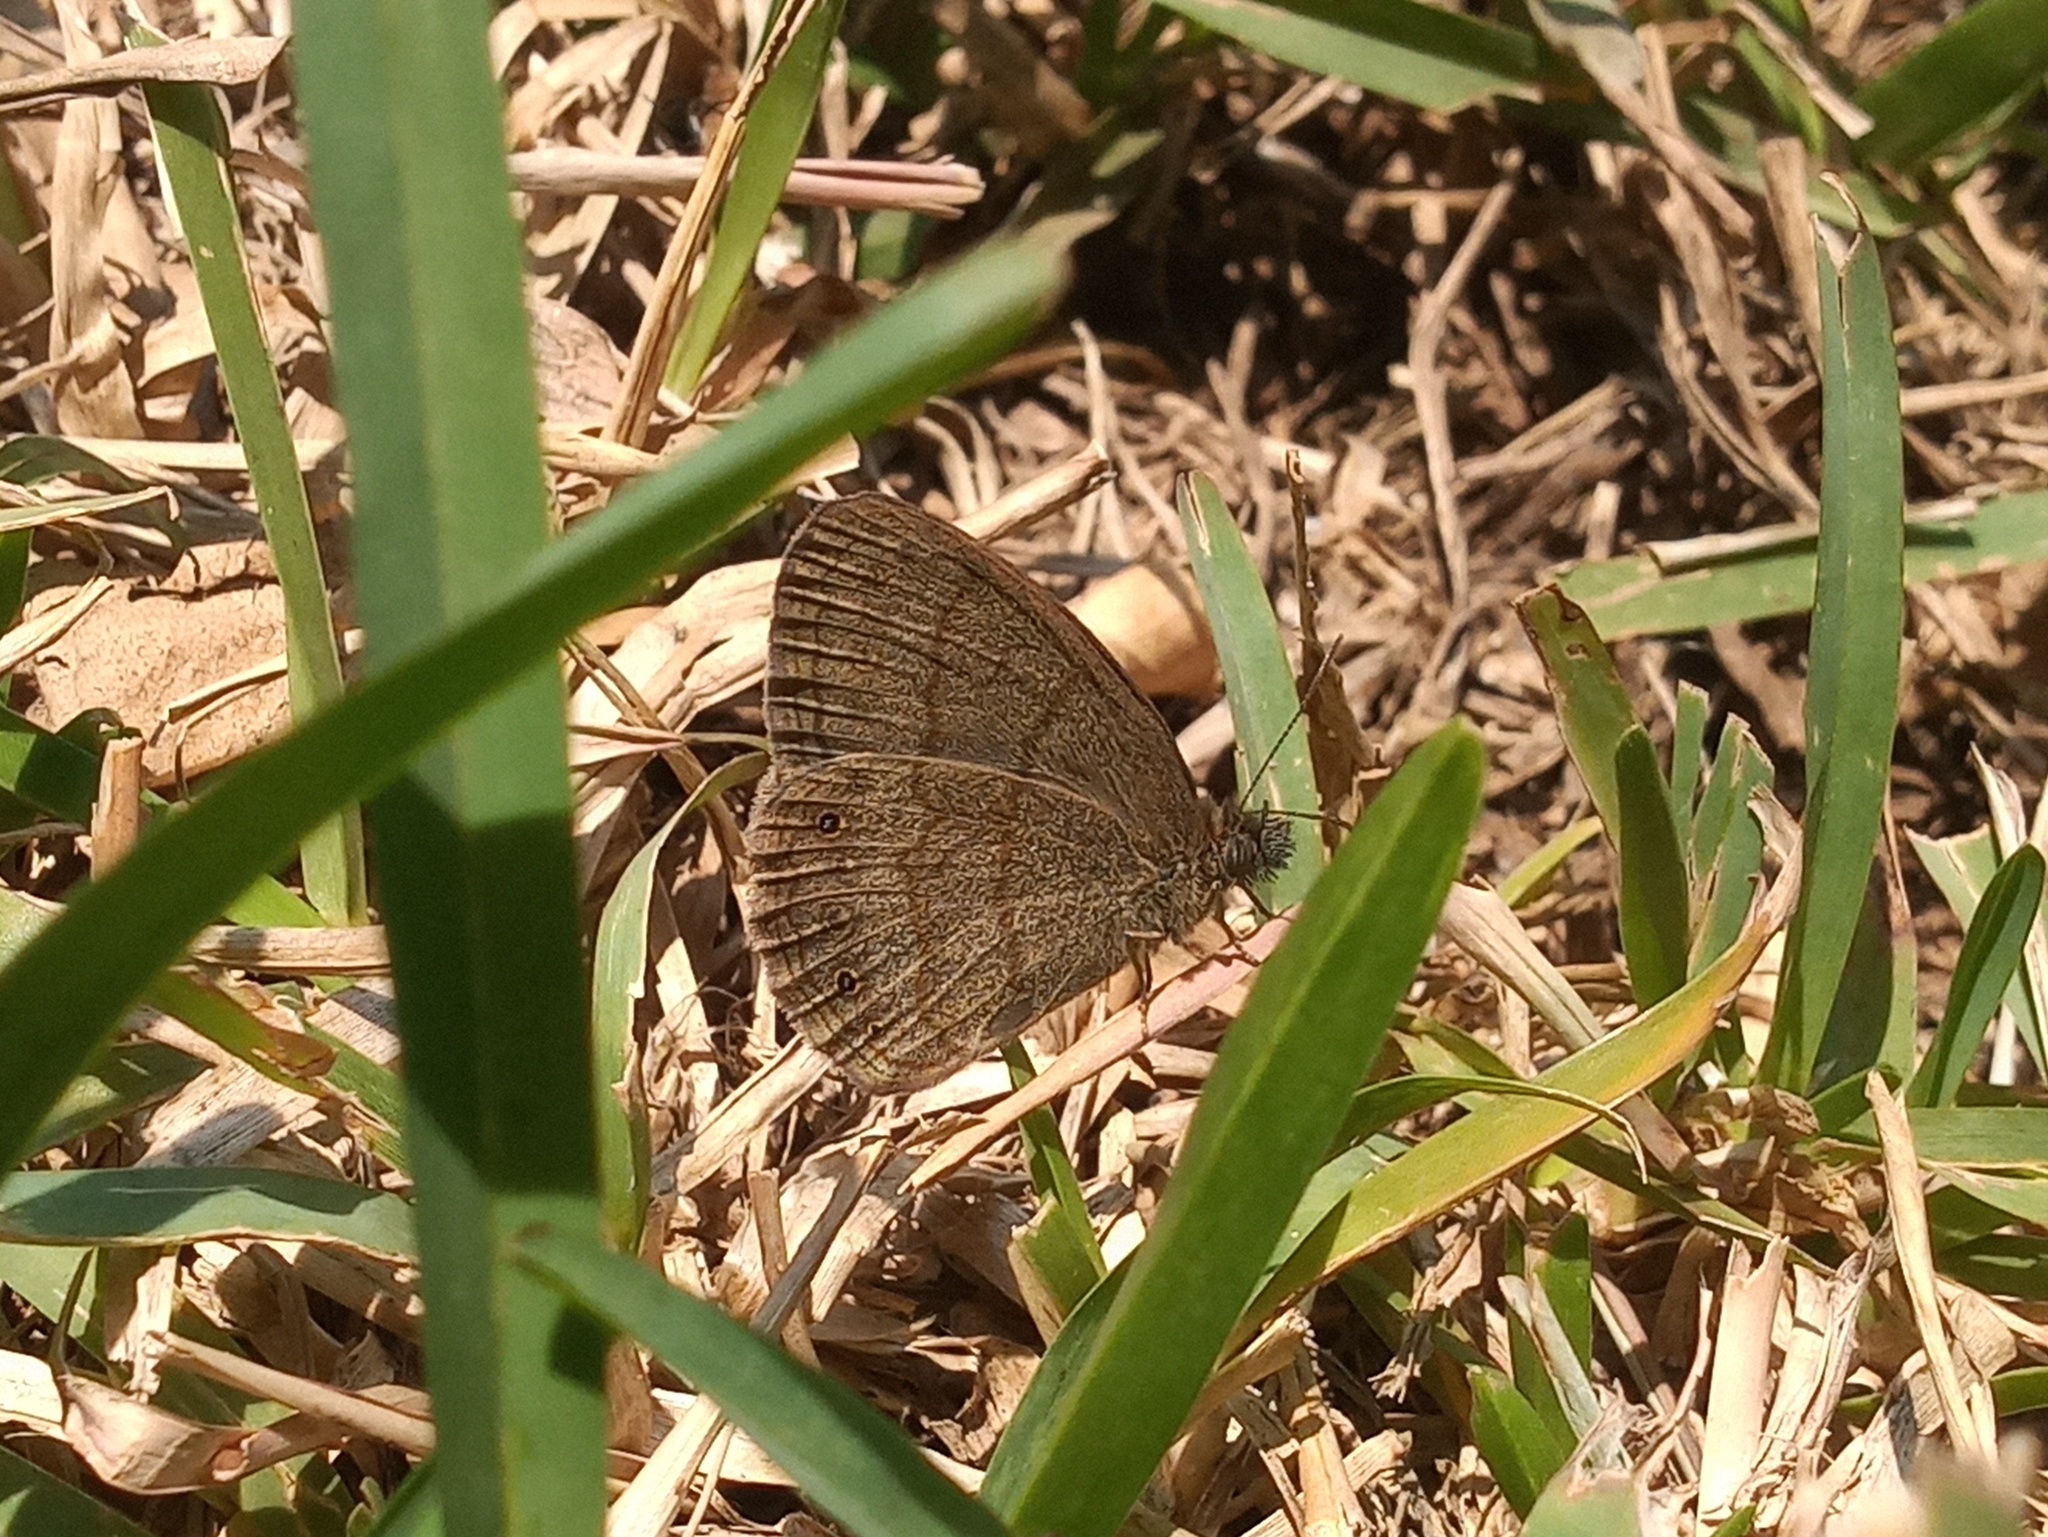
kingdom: Animalia
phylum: Arthropoda
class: Insecta
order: Lepidoptera
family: Nymphalidae
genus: Hermeuptychia
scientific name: Hermeuptychia hermybius
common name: South texas satyr
